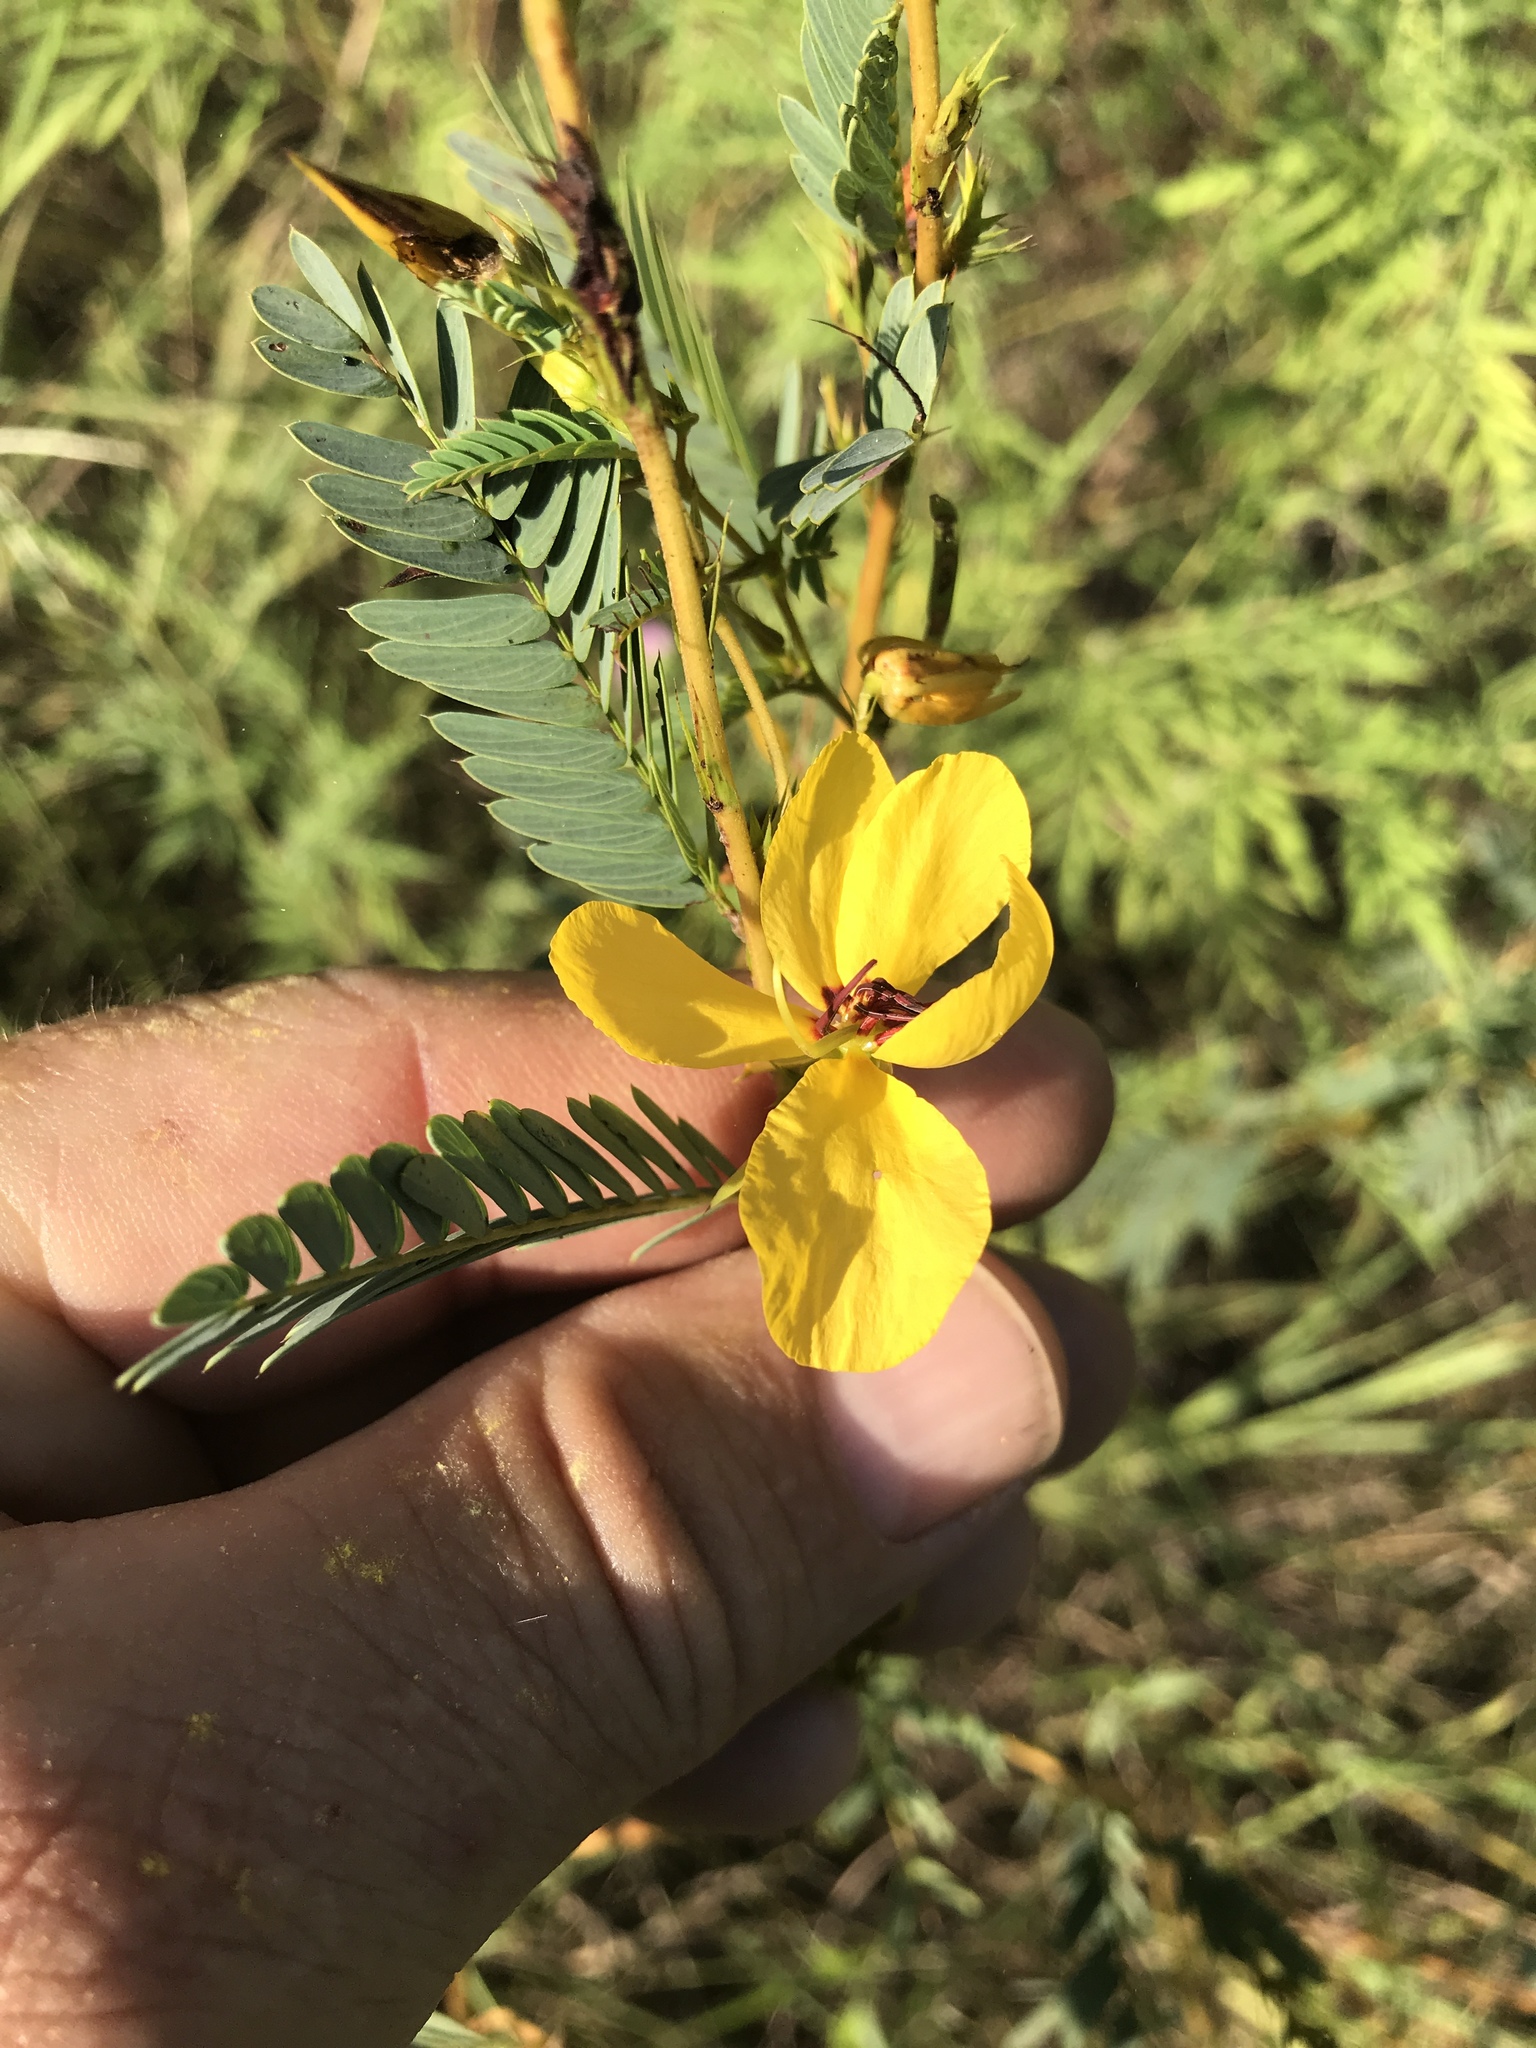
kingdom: Plantae
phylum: Tracheophyta
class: Magnoliopsida
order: Fabales
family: Fabaceae
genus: Chamaecrista
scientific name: Chamaecrista fasciculata
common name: Golden cassia
